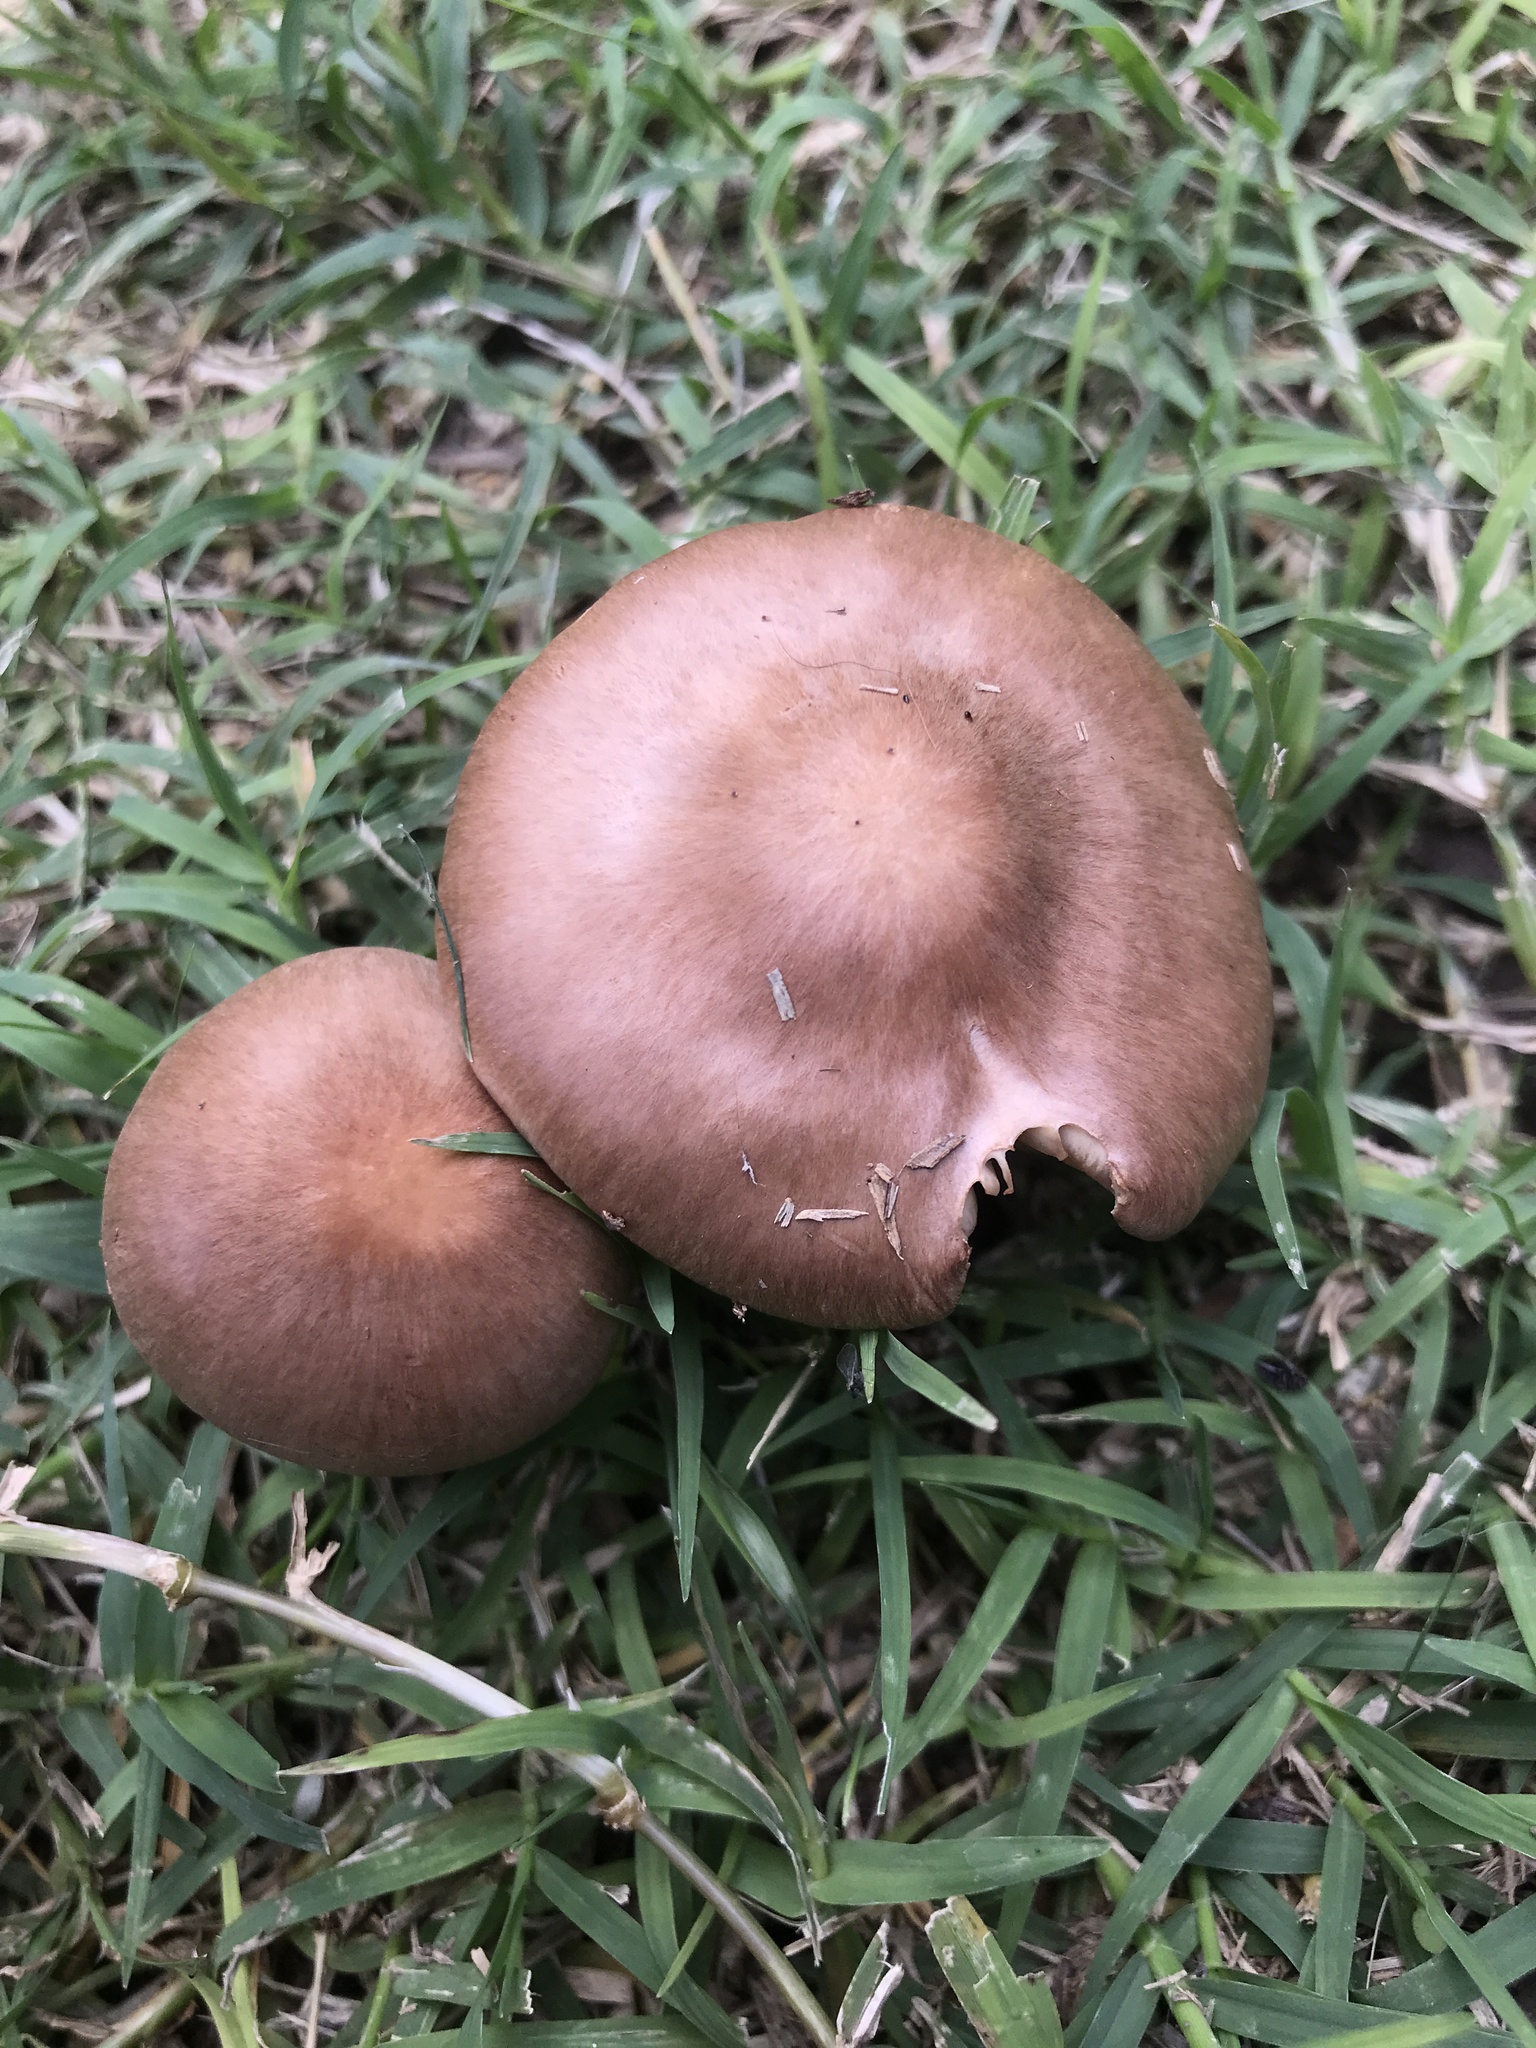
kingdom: Fungi
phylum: Basidiomycota
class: Agaricomycetes
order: Agaricales
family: Omphalotaceae
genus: Collybiopsis
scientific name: Collybiopsis luxurians
